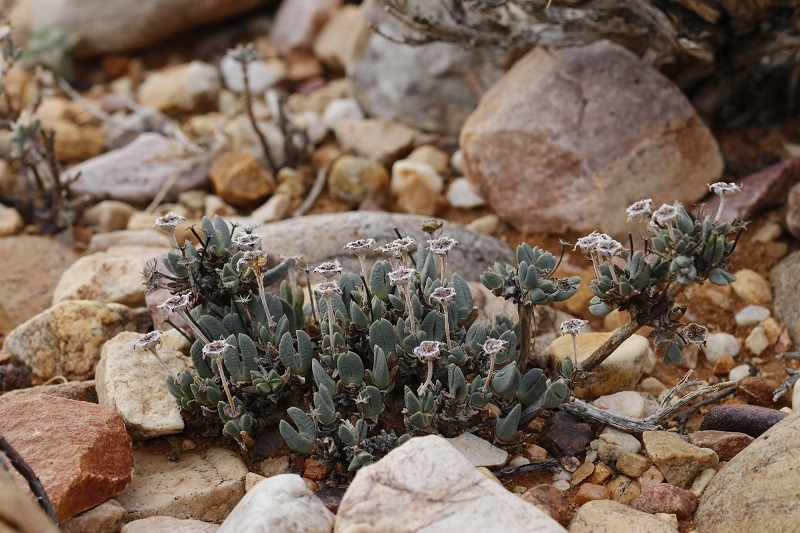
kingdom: Plantae
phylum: Tracheophyta
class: Magnoliopsida
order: Caryophyllales
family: Aizoaceae
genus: Antimima
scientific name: Antimima piscodora
